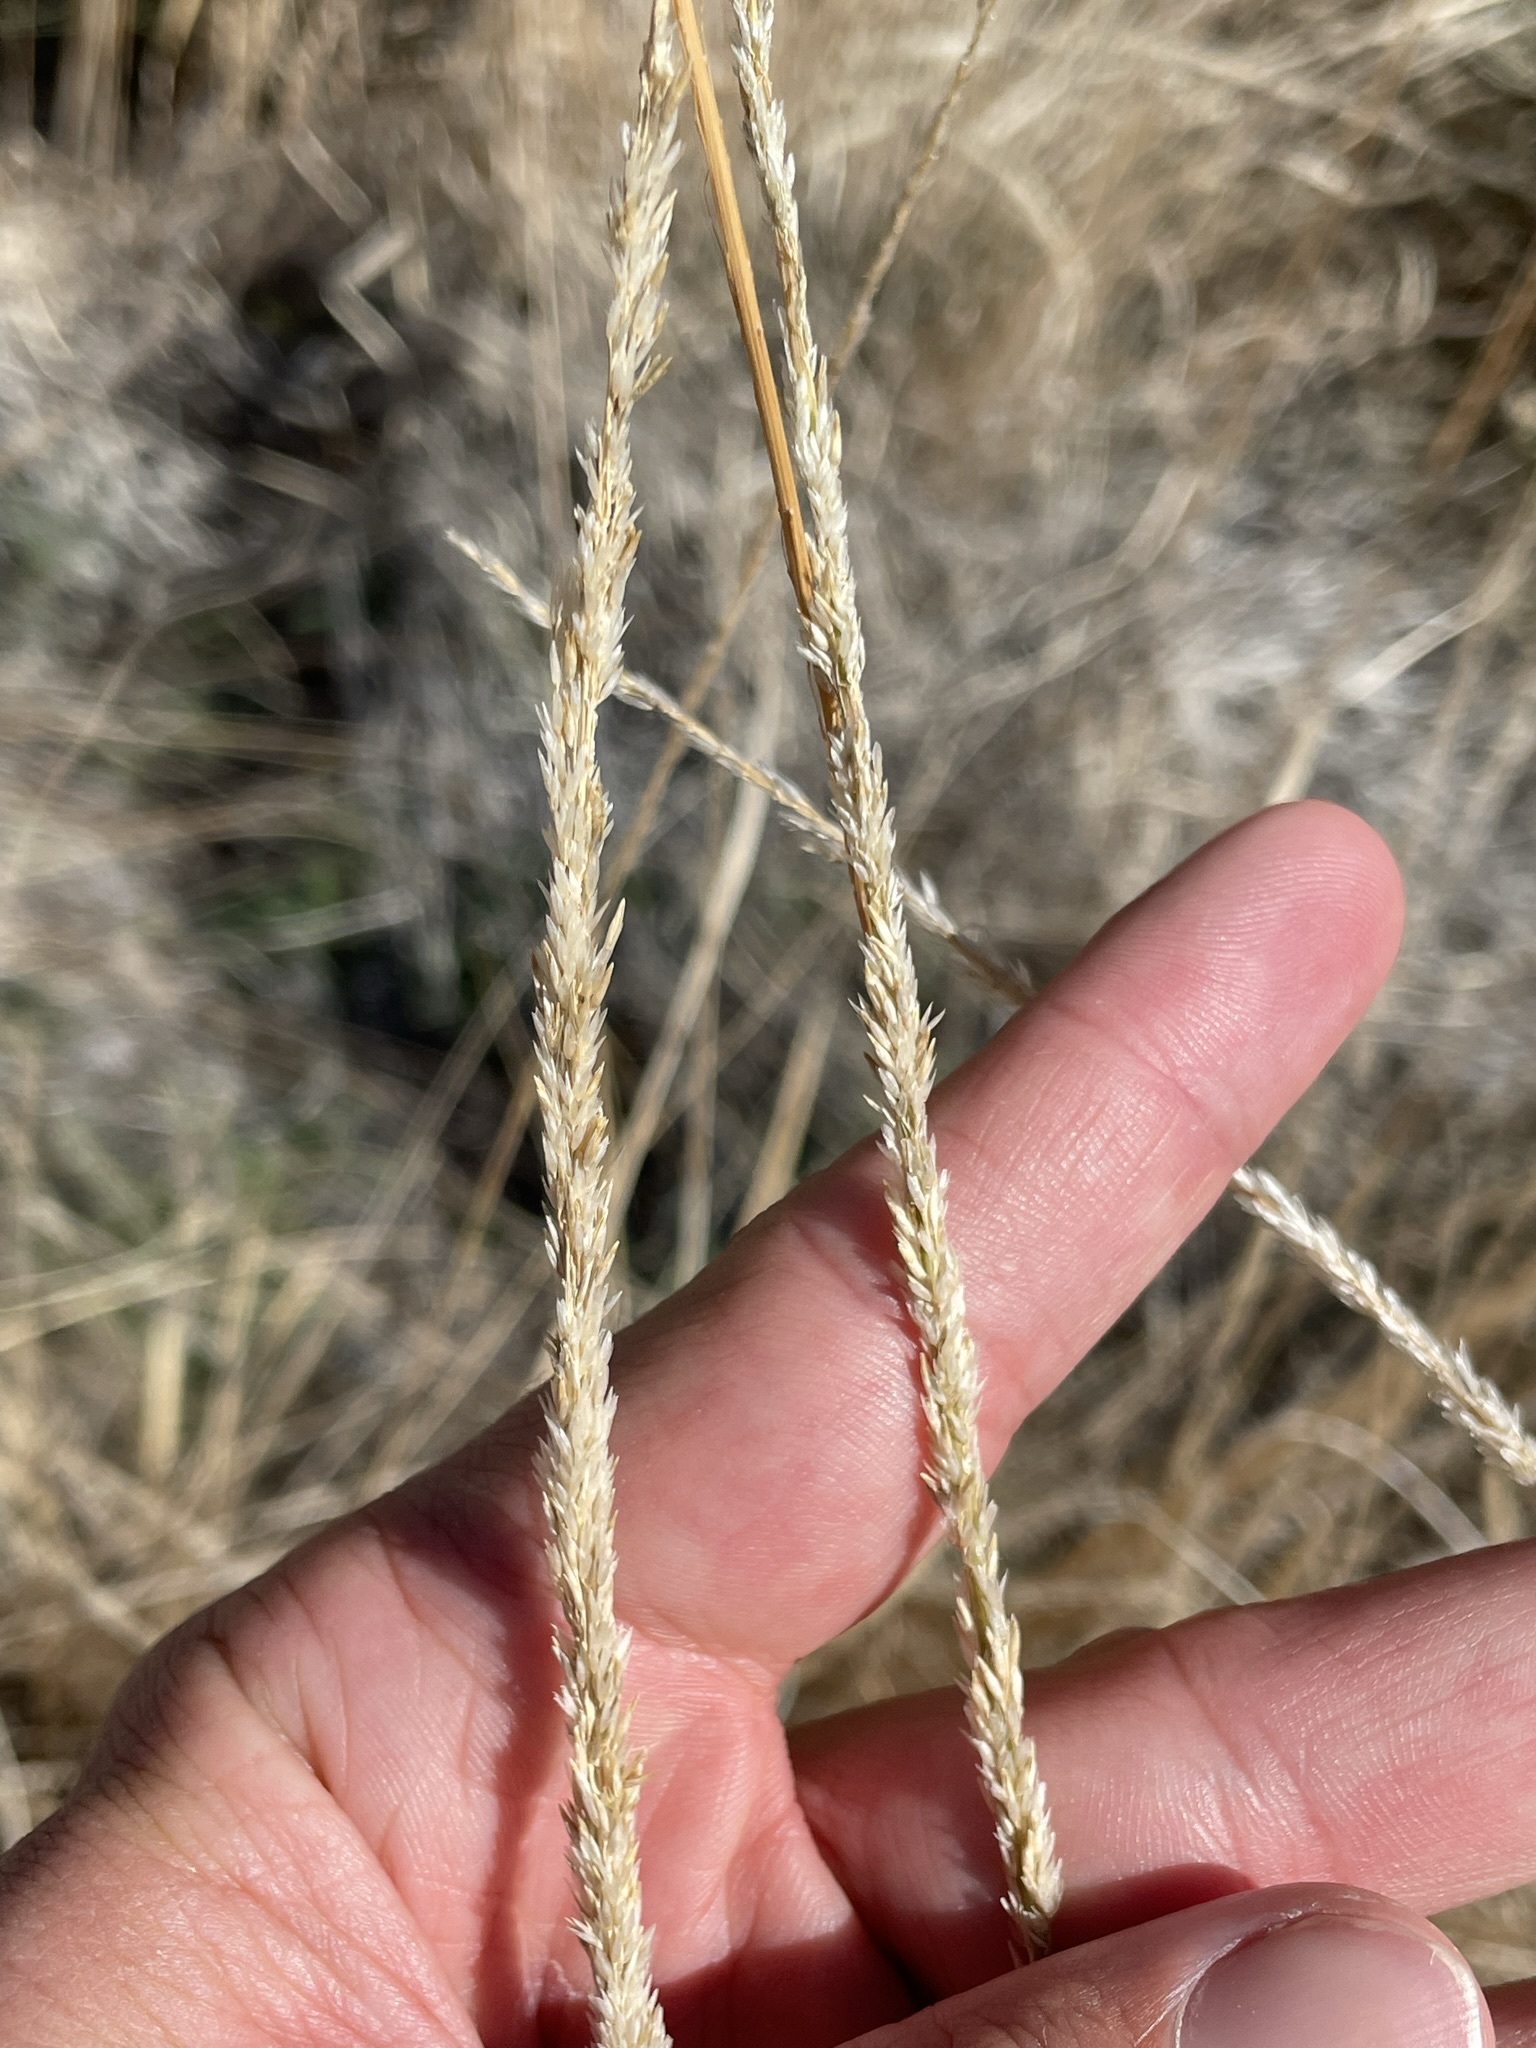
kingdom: Plantae
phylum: Tracheophyta
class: Liliopsida
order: Poales
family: Poaceae
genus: Muhlenbergia
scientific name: Muhlenbergia rigens
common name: Deer grass
